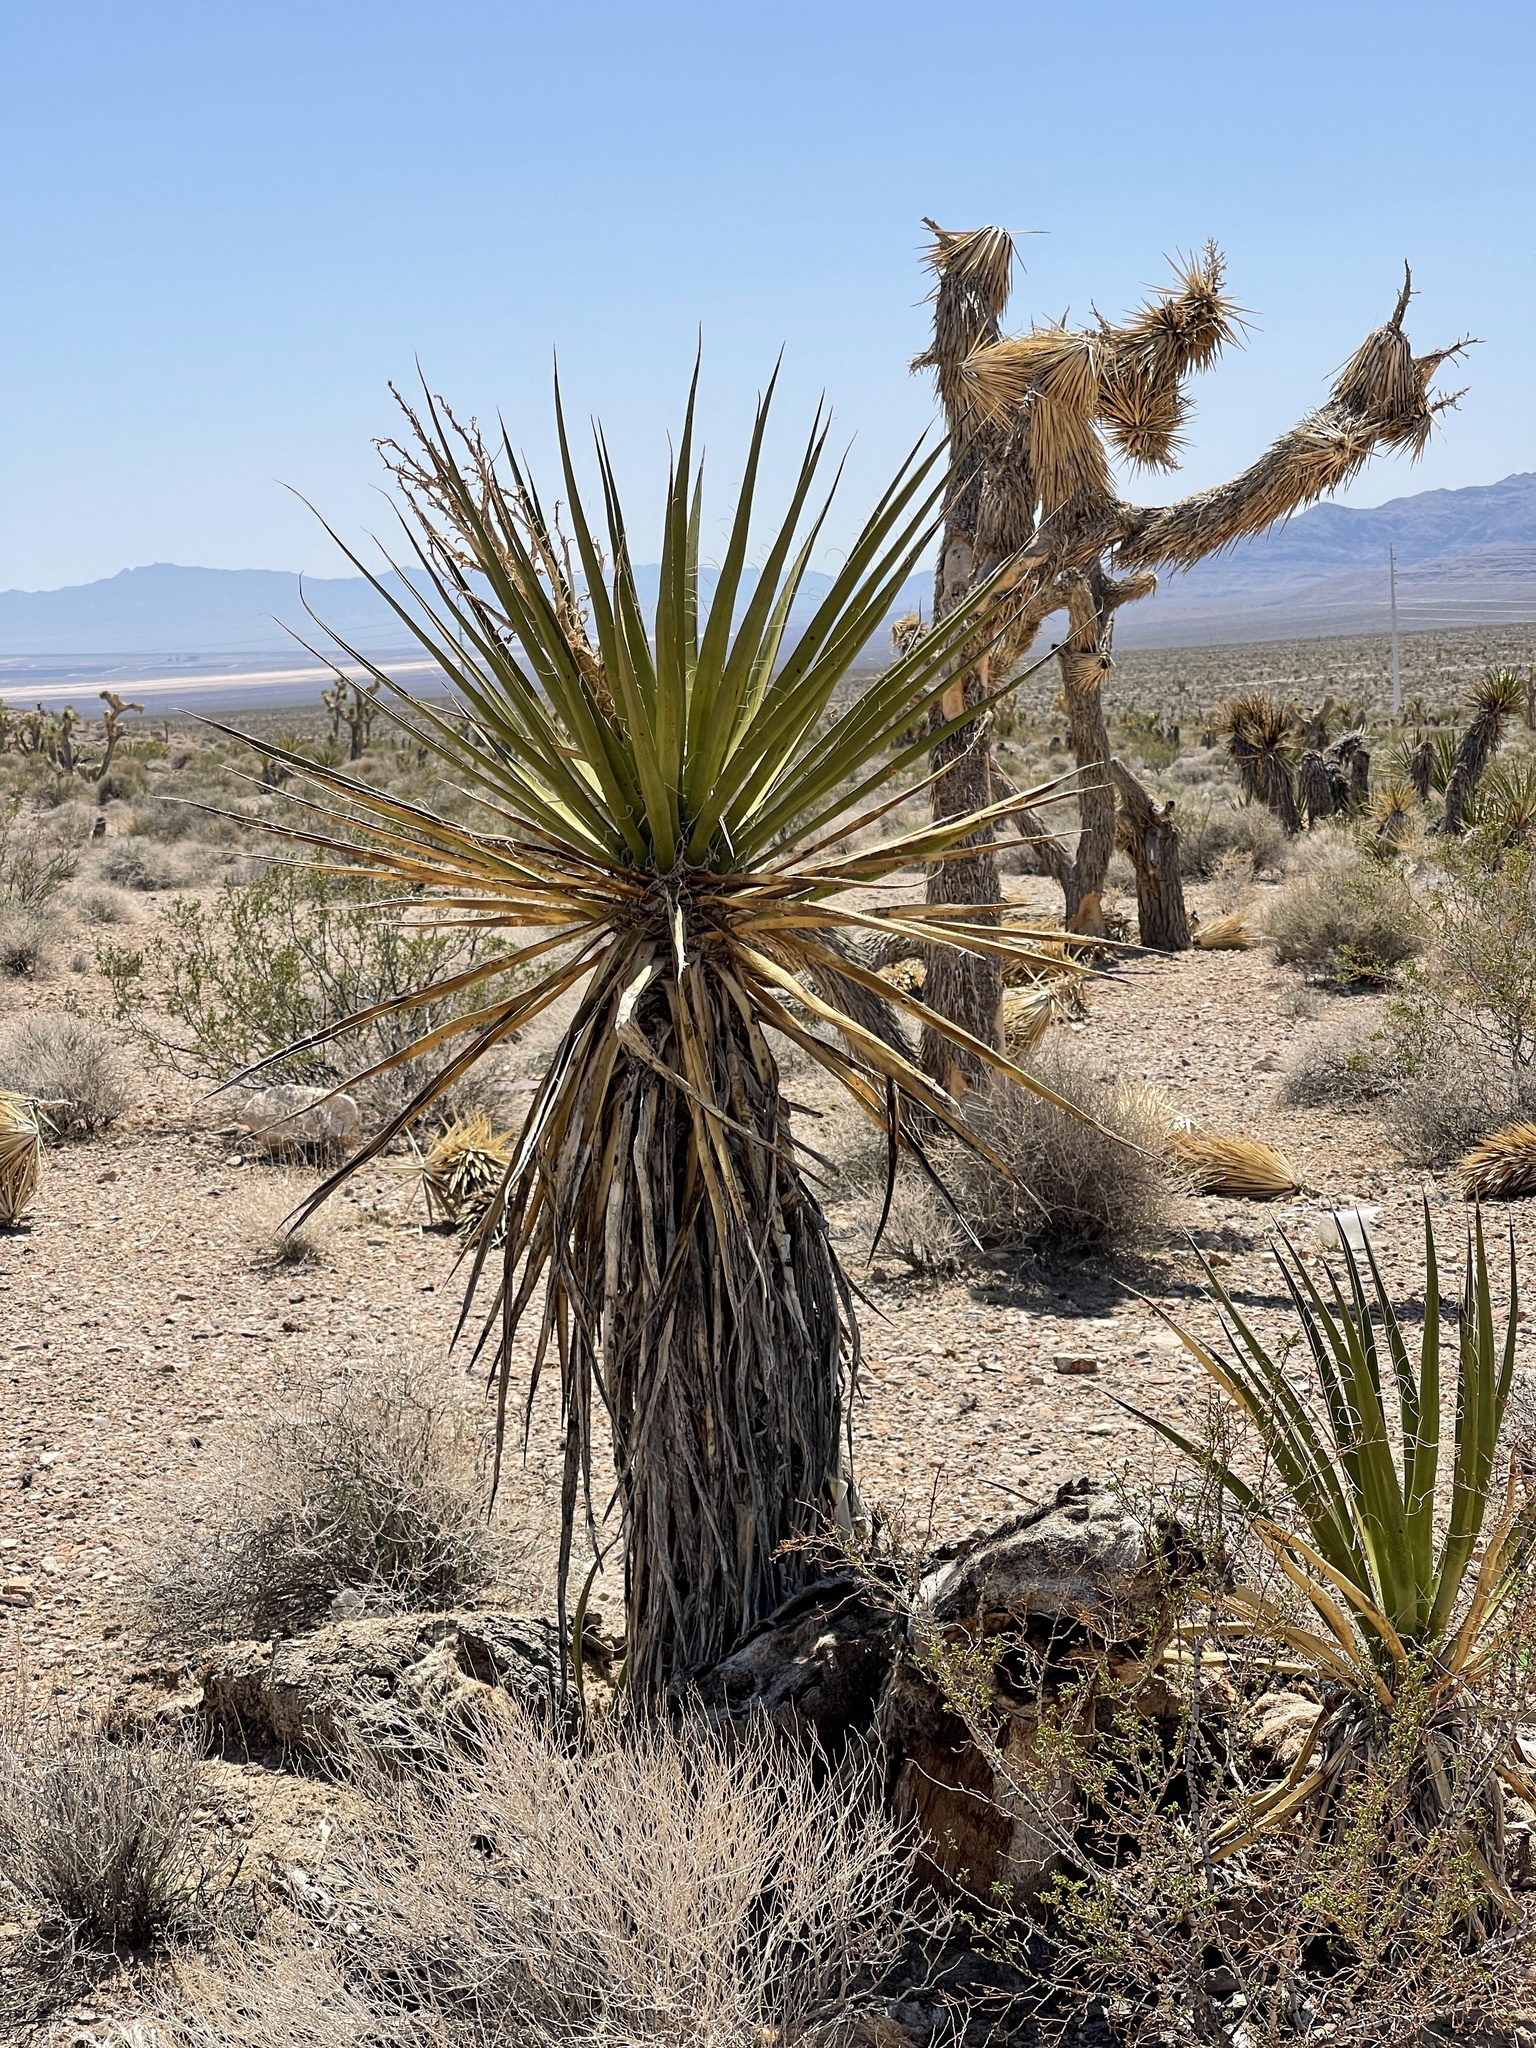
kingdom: Plantae
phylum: Tracheophyta
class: Liliopsida
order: Asparagales
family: Asparagaceae
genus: Yucca
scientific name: Yucca schidigera
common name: Mojave yucca
